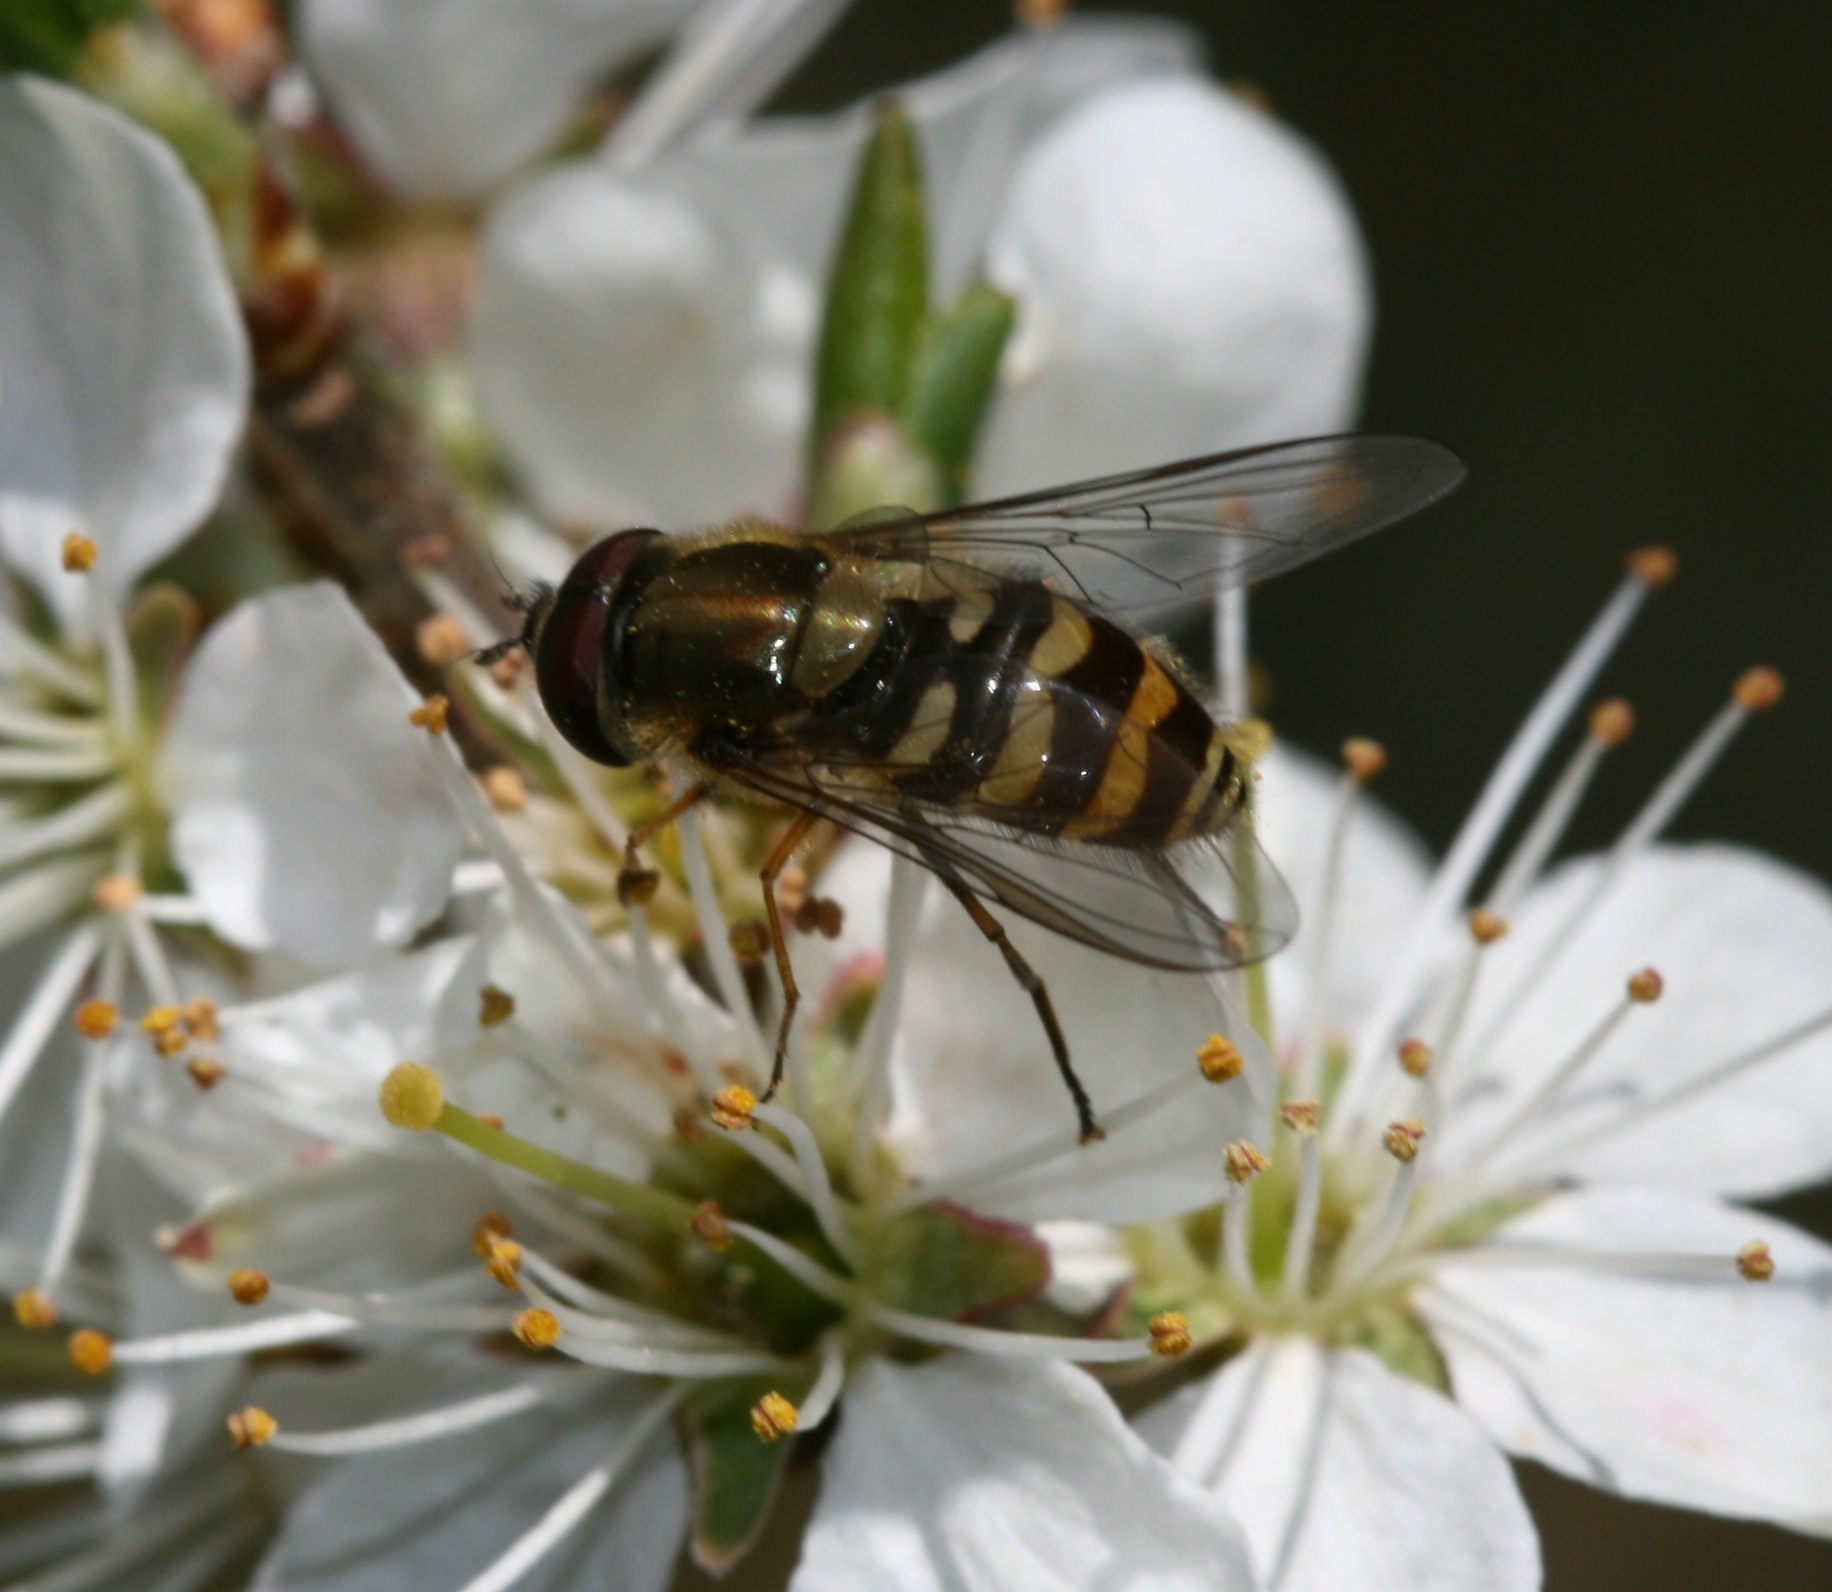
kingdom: Animalia
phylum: Arthropoda
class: Insecta
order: Diptera
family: Syrphidae
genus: Syrphus
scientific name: Syrphus torvus
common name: Hairy-eyed flower fly
